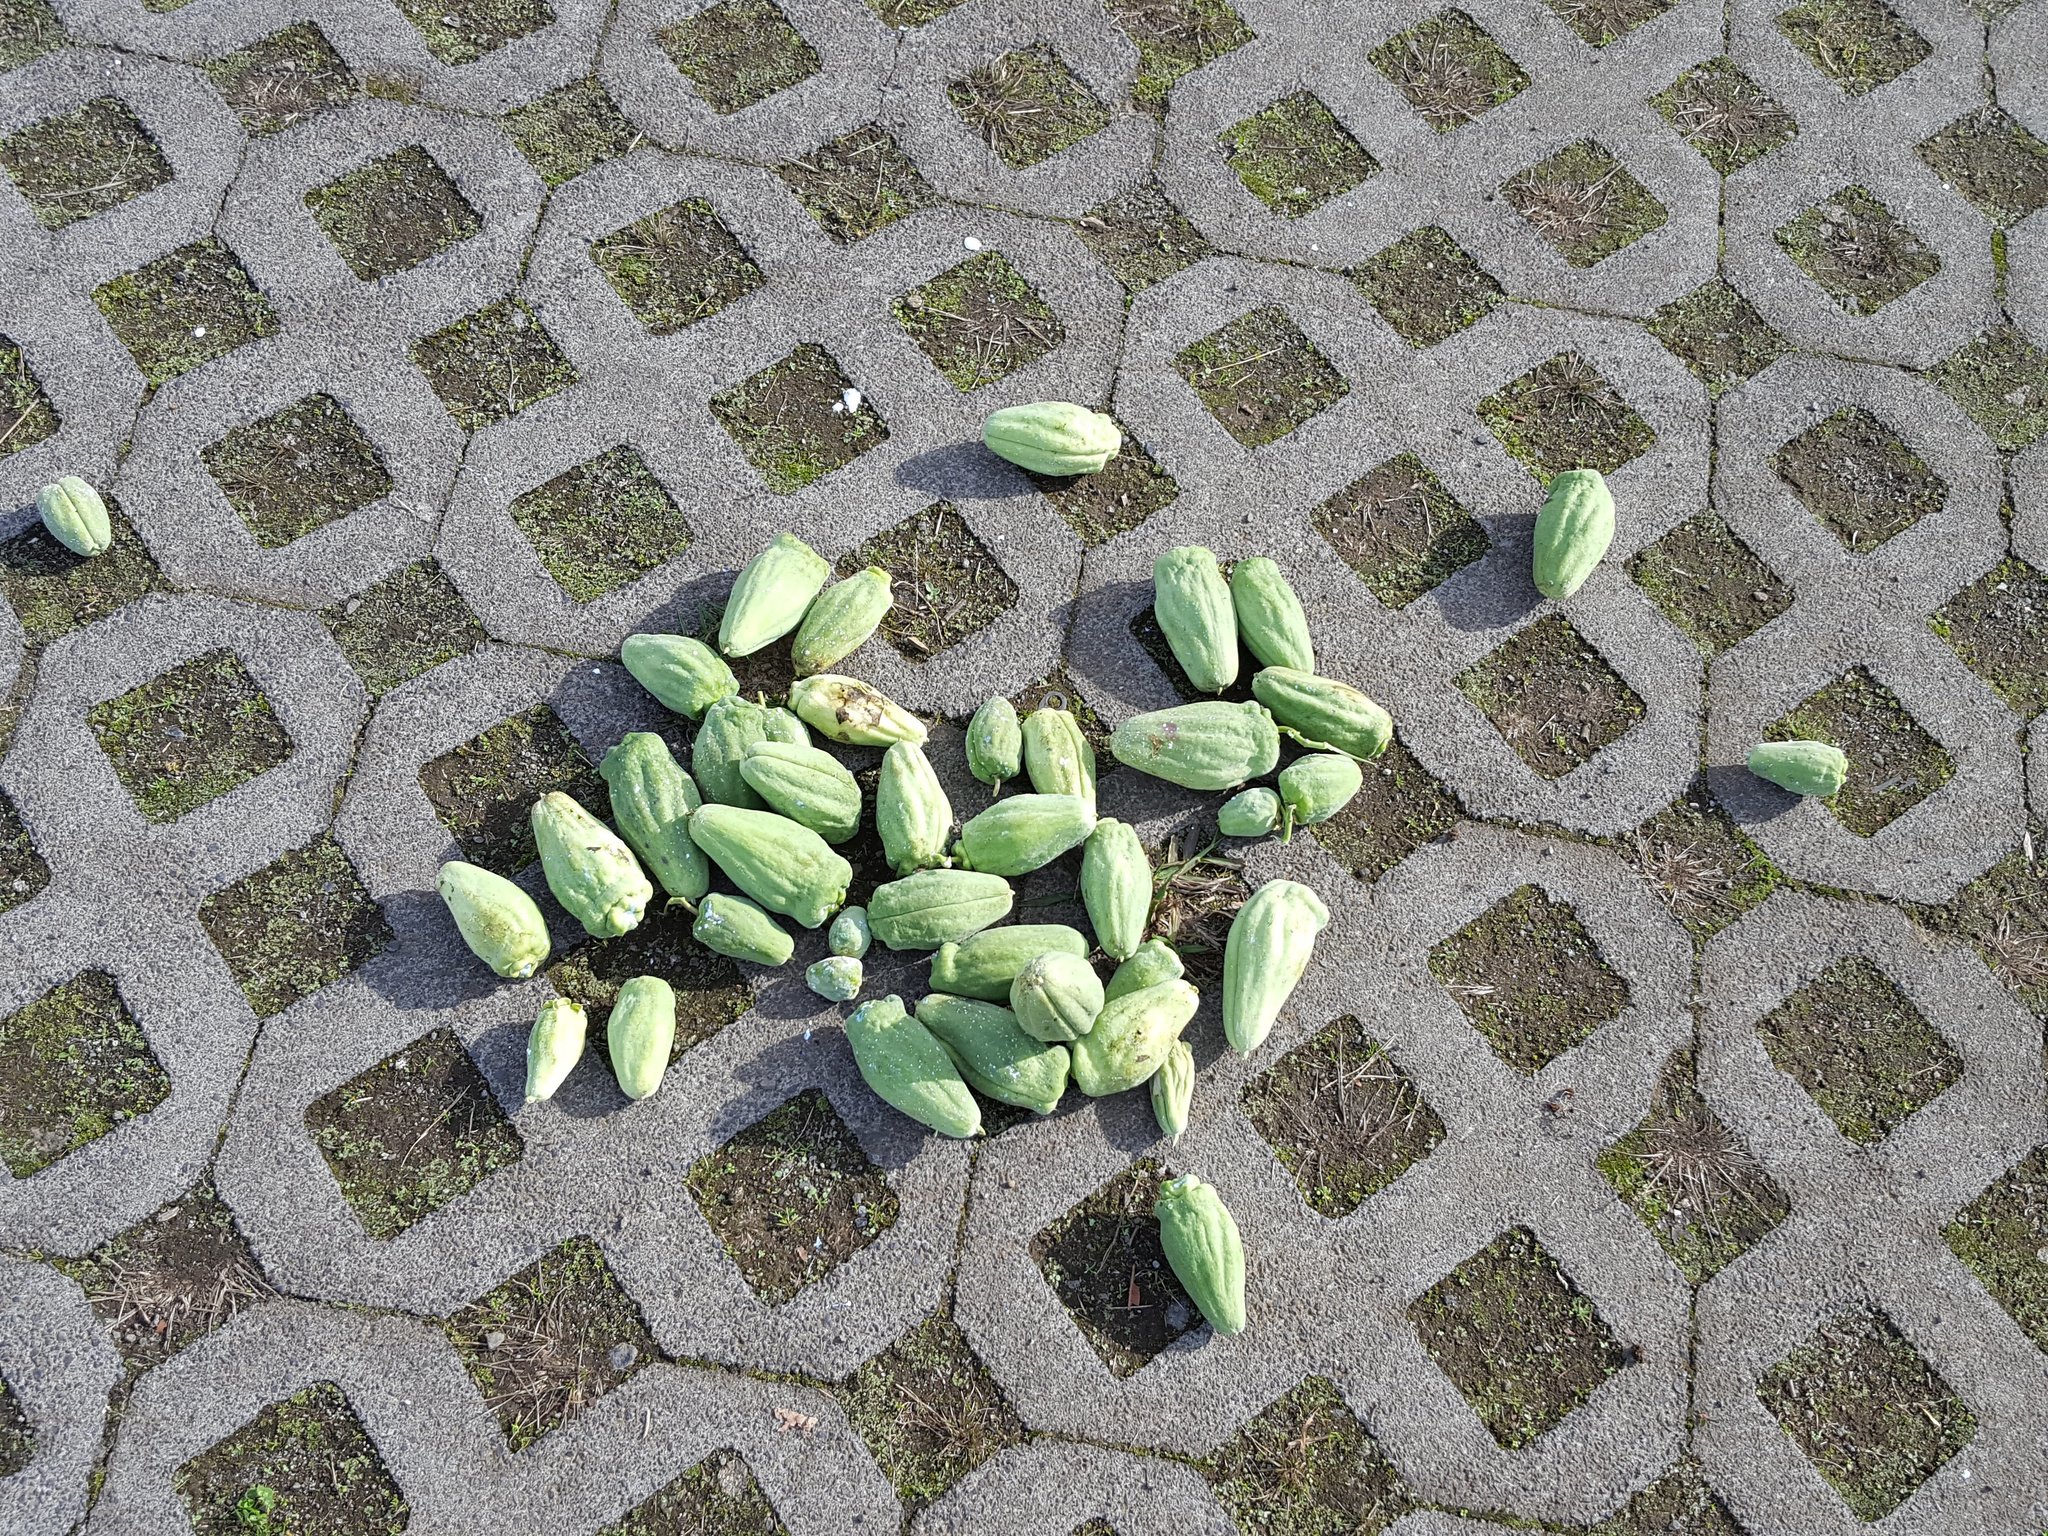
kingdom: Plantae
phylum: Tracheophyta
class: Magnoliopsida
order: Gentianales
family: Apocynaceae
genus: Araujia
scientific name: Araujia sericifera
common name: White bladderflower
